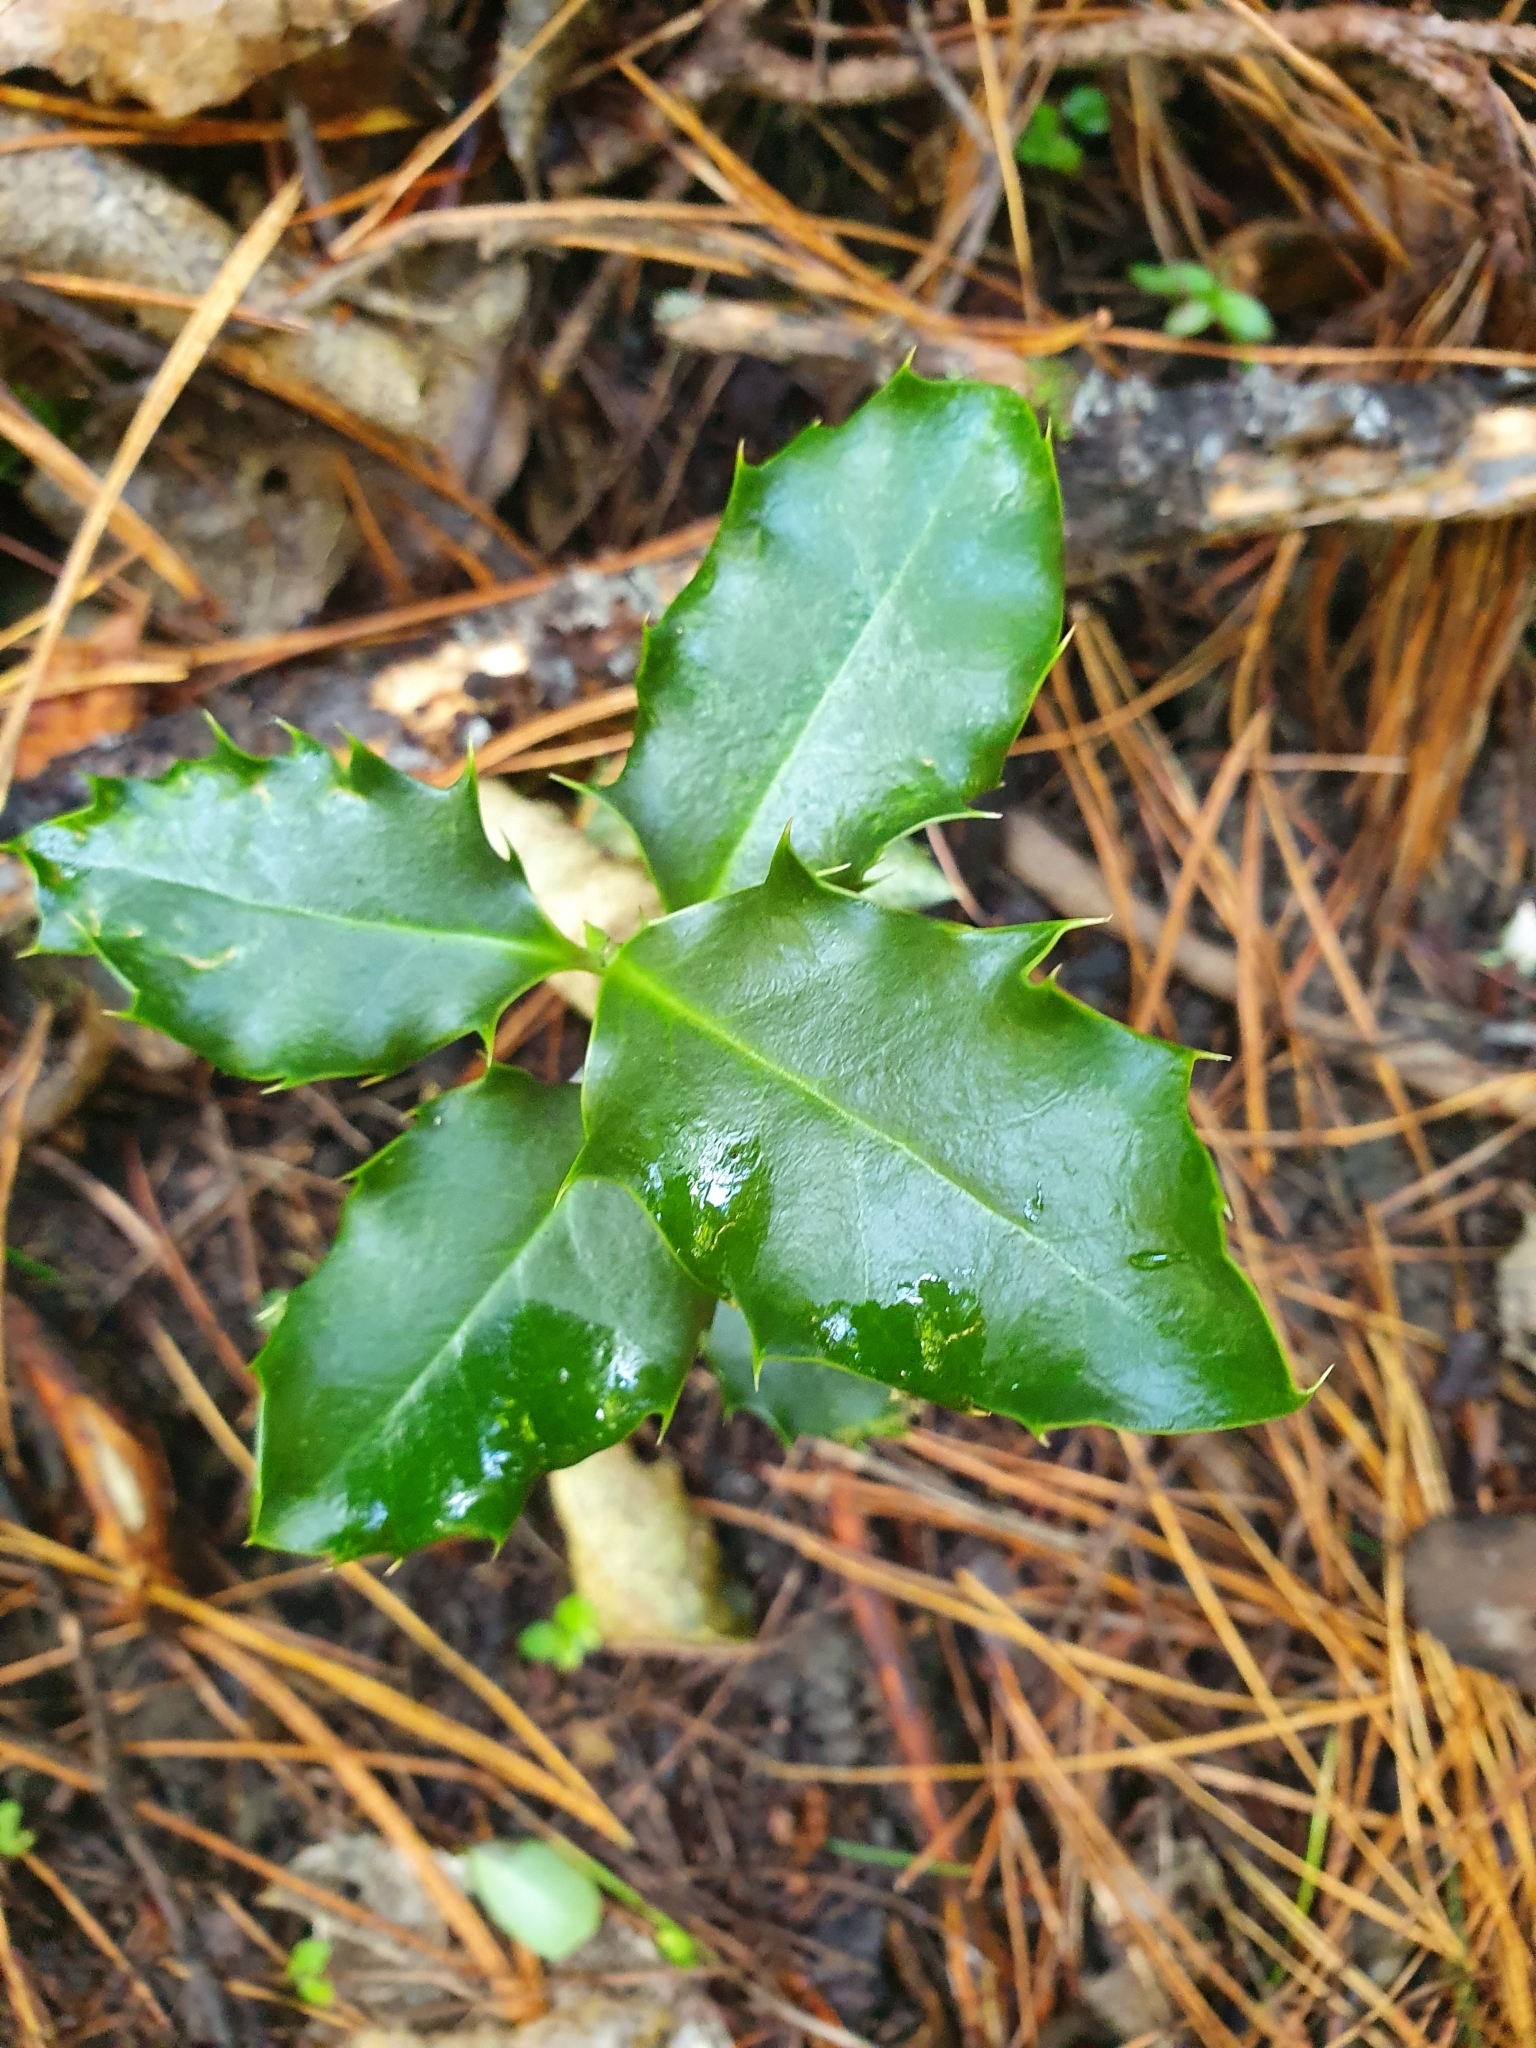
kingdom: Plantae
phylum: Tracheophyta
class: Magnoliopsida
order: Aquifoliales
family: Aquifoliaceae
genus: Ilex
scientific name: Ilex aquifolium
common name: English holly
